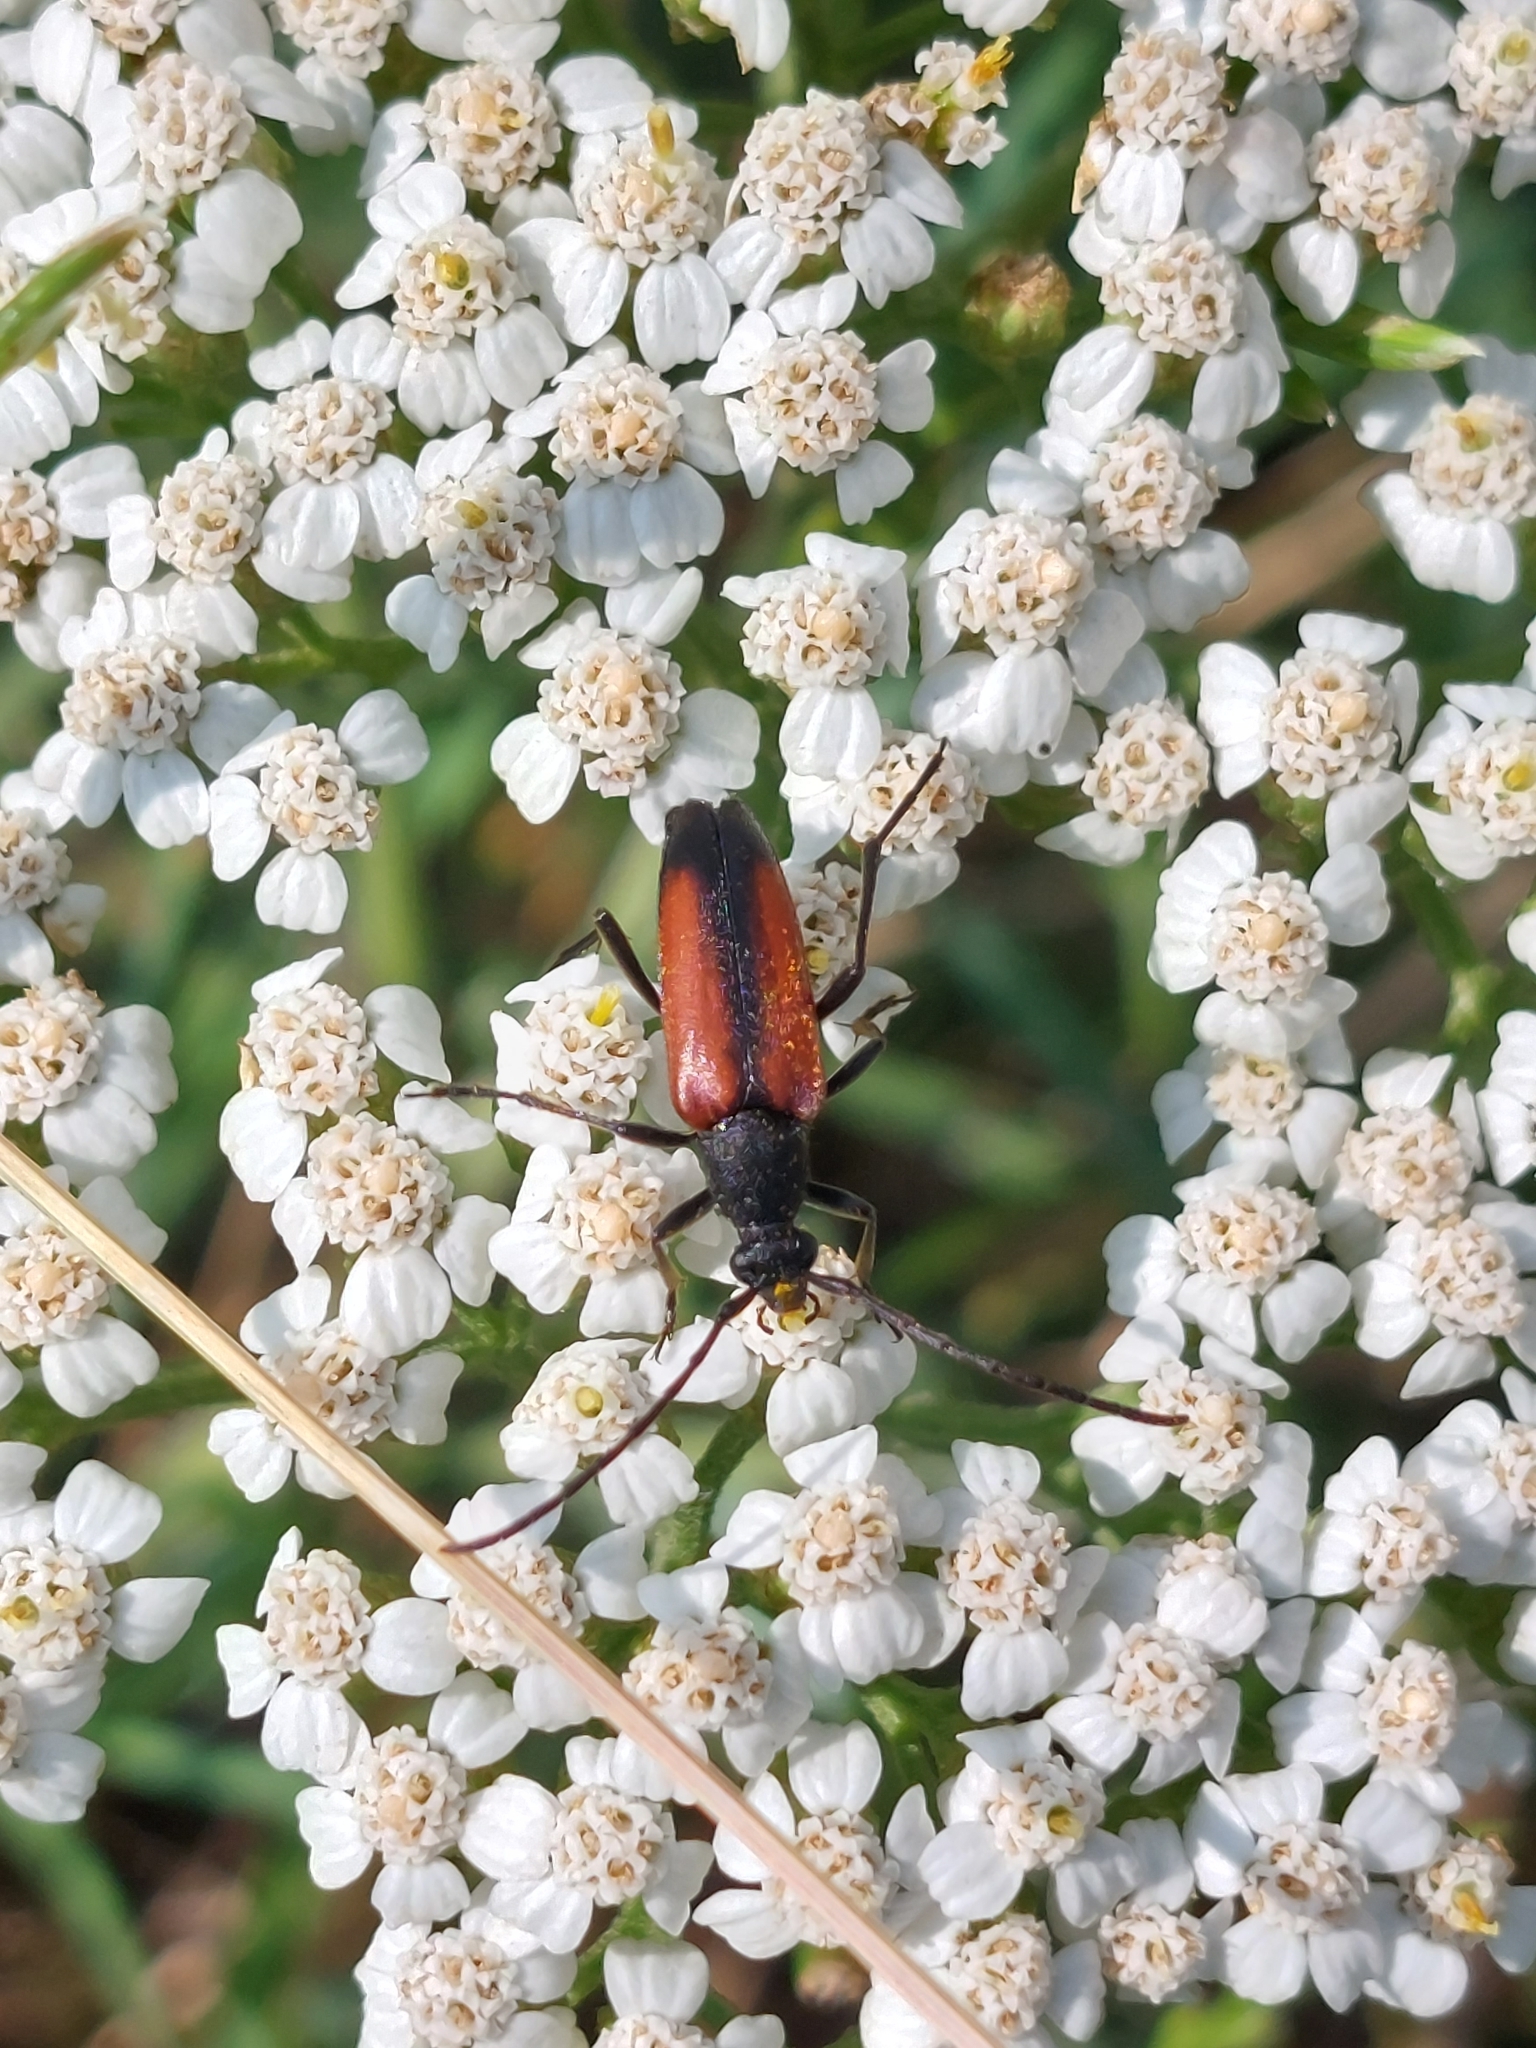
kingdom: Animalia
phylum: Arthropoda
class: Insecta
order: Coleoptera
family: Cerambycidae
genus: Stenurella
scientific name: Stenurella melanura
